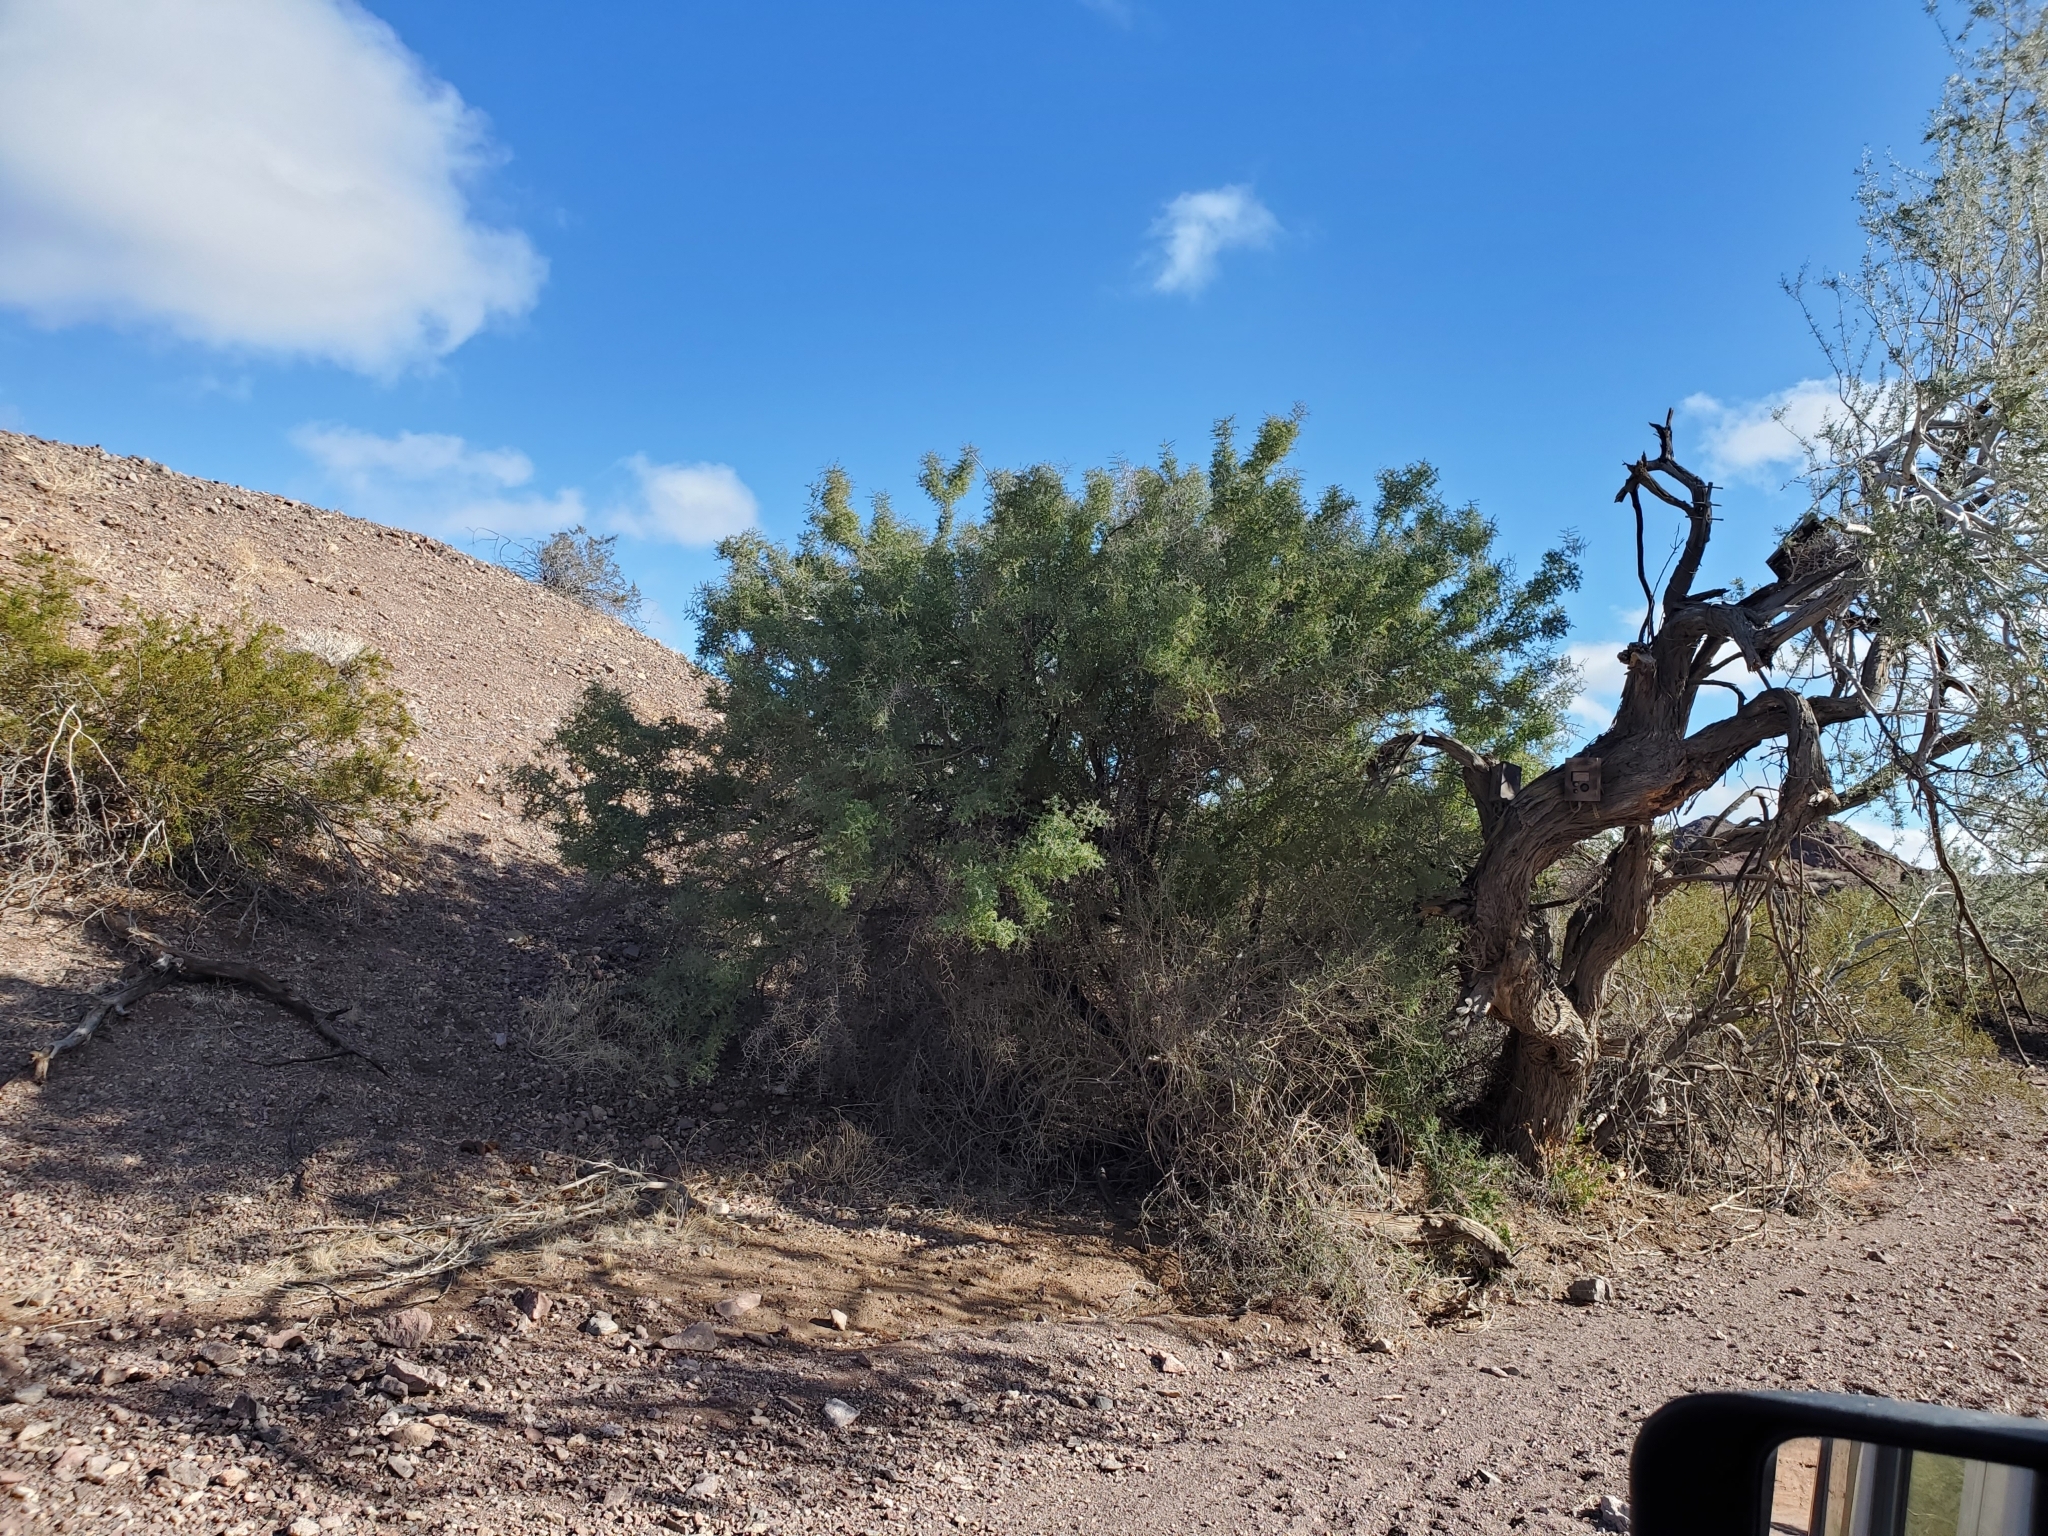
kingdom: Plantae
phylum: Tracheophyta
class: Magnoliopsida
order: Rosales
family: Rhamnaceae
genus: Sarcomphalus
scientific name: Sarcomphalus obtusifolius
